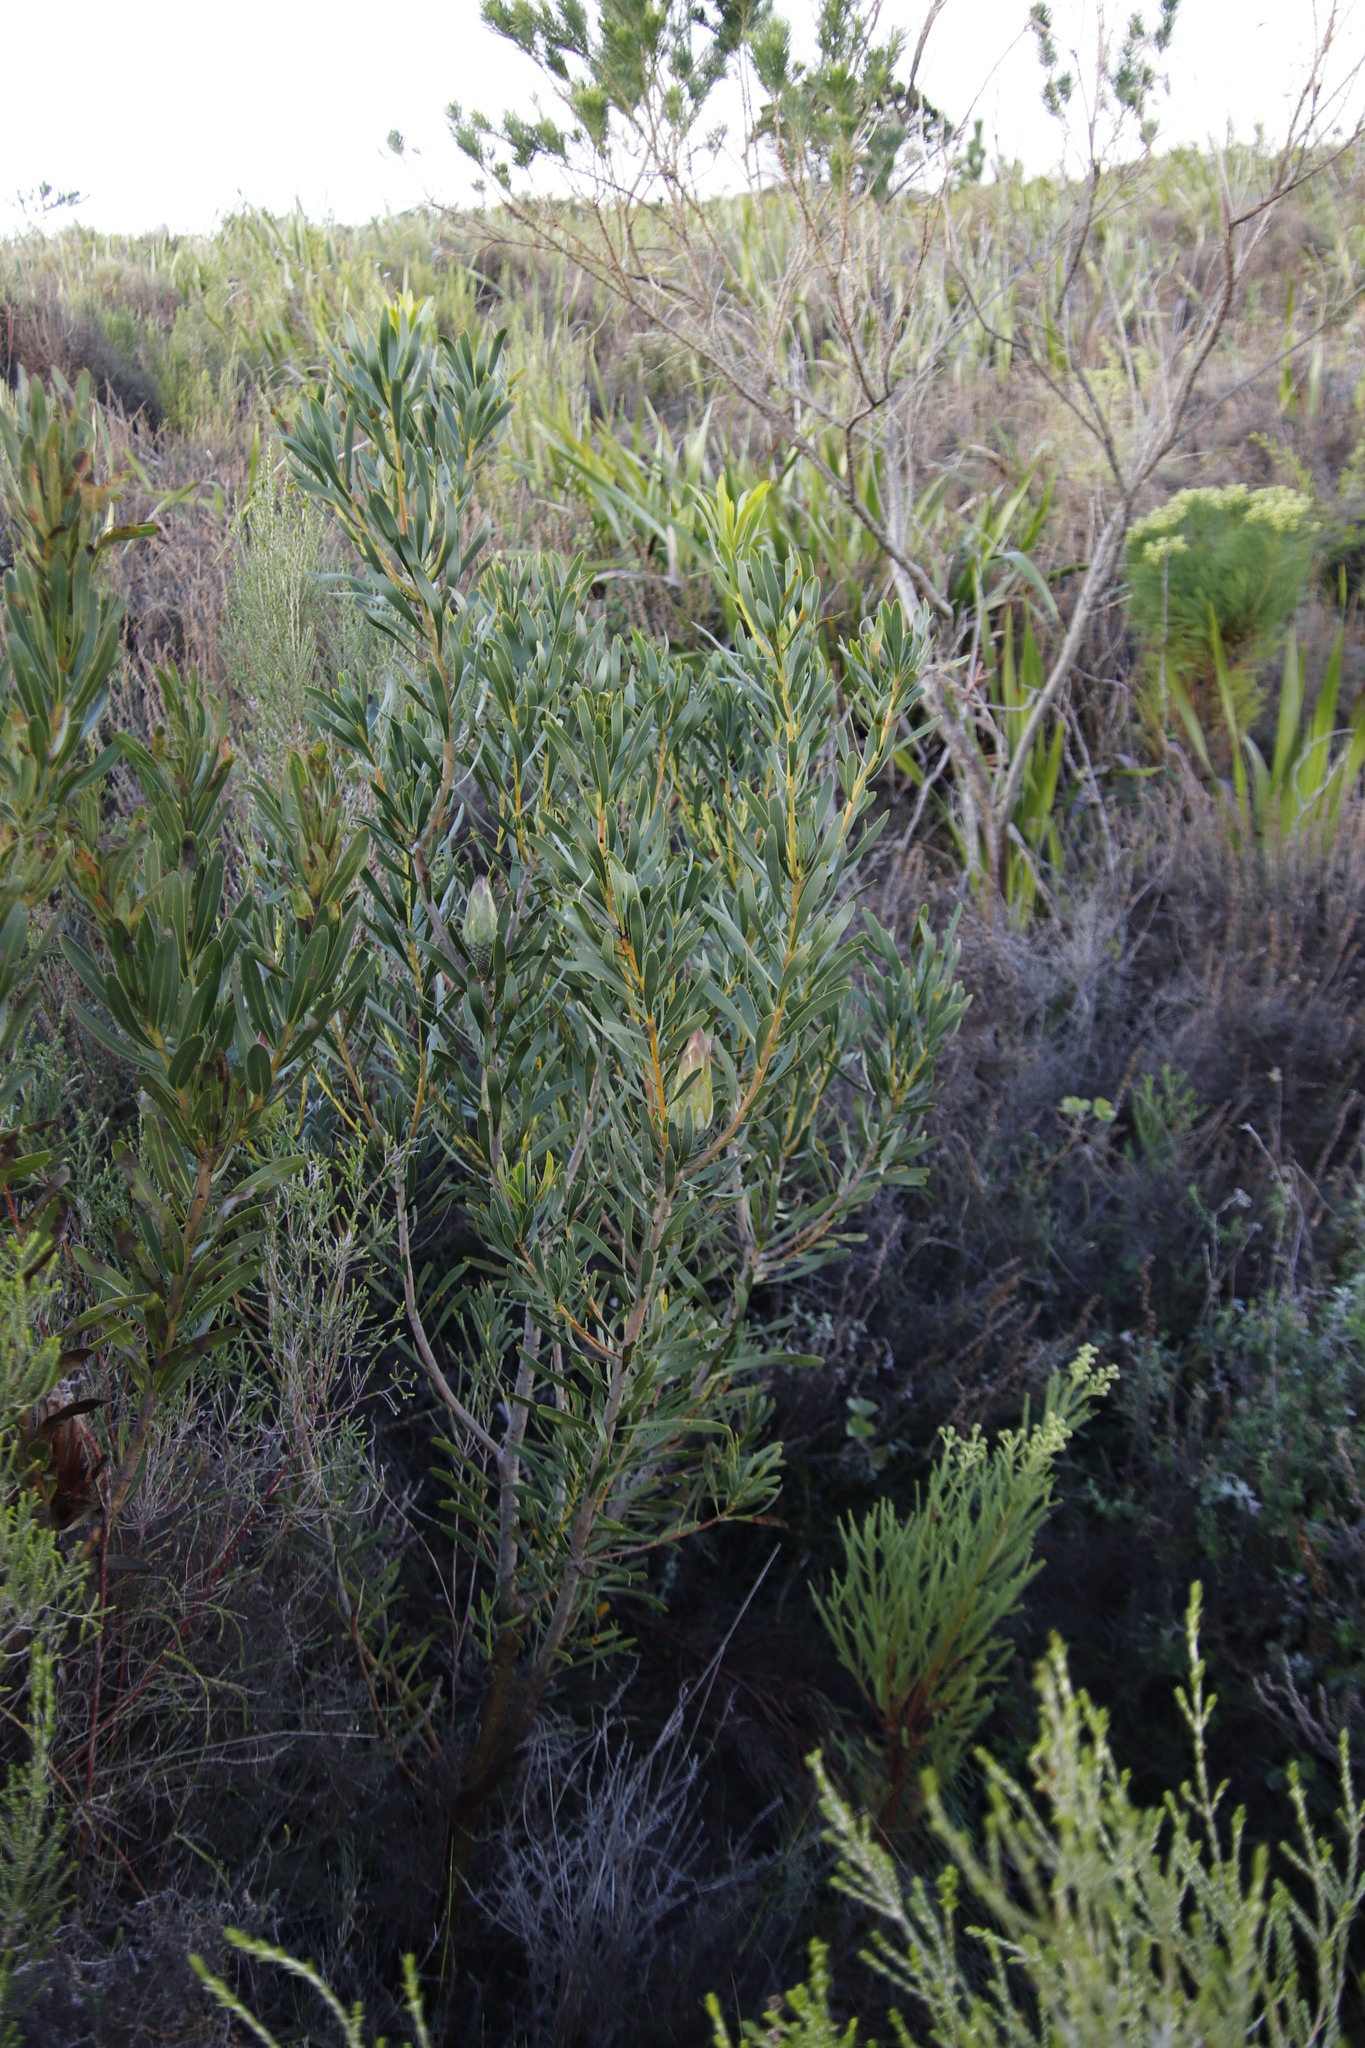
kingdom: Plantae
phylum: Tracheophyta
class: Magnoliopsida
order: Proteales
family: Proteaceae
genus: Protea
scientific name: Protea repens
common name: Sugarbush
